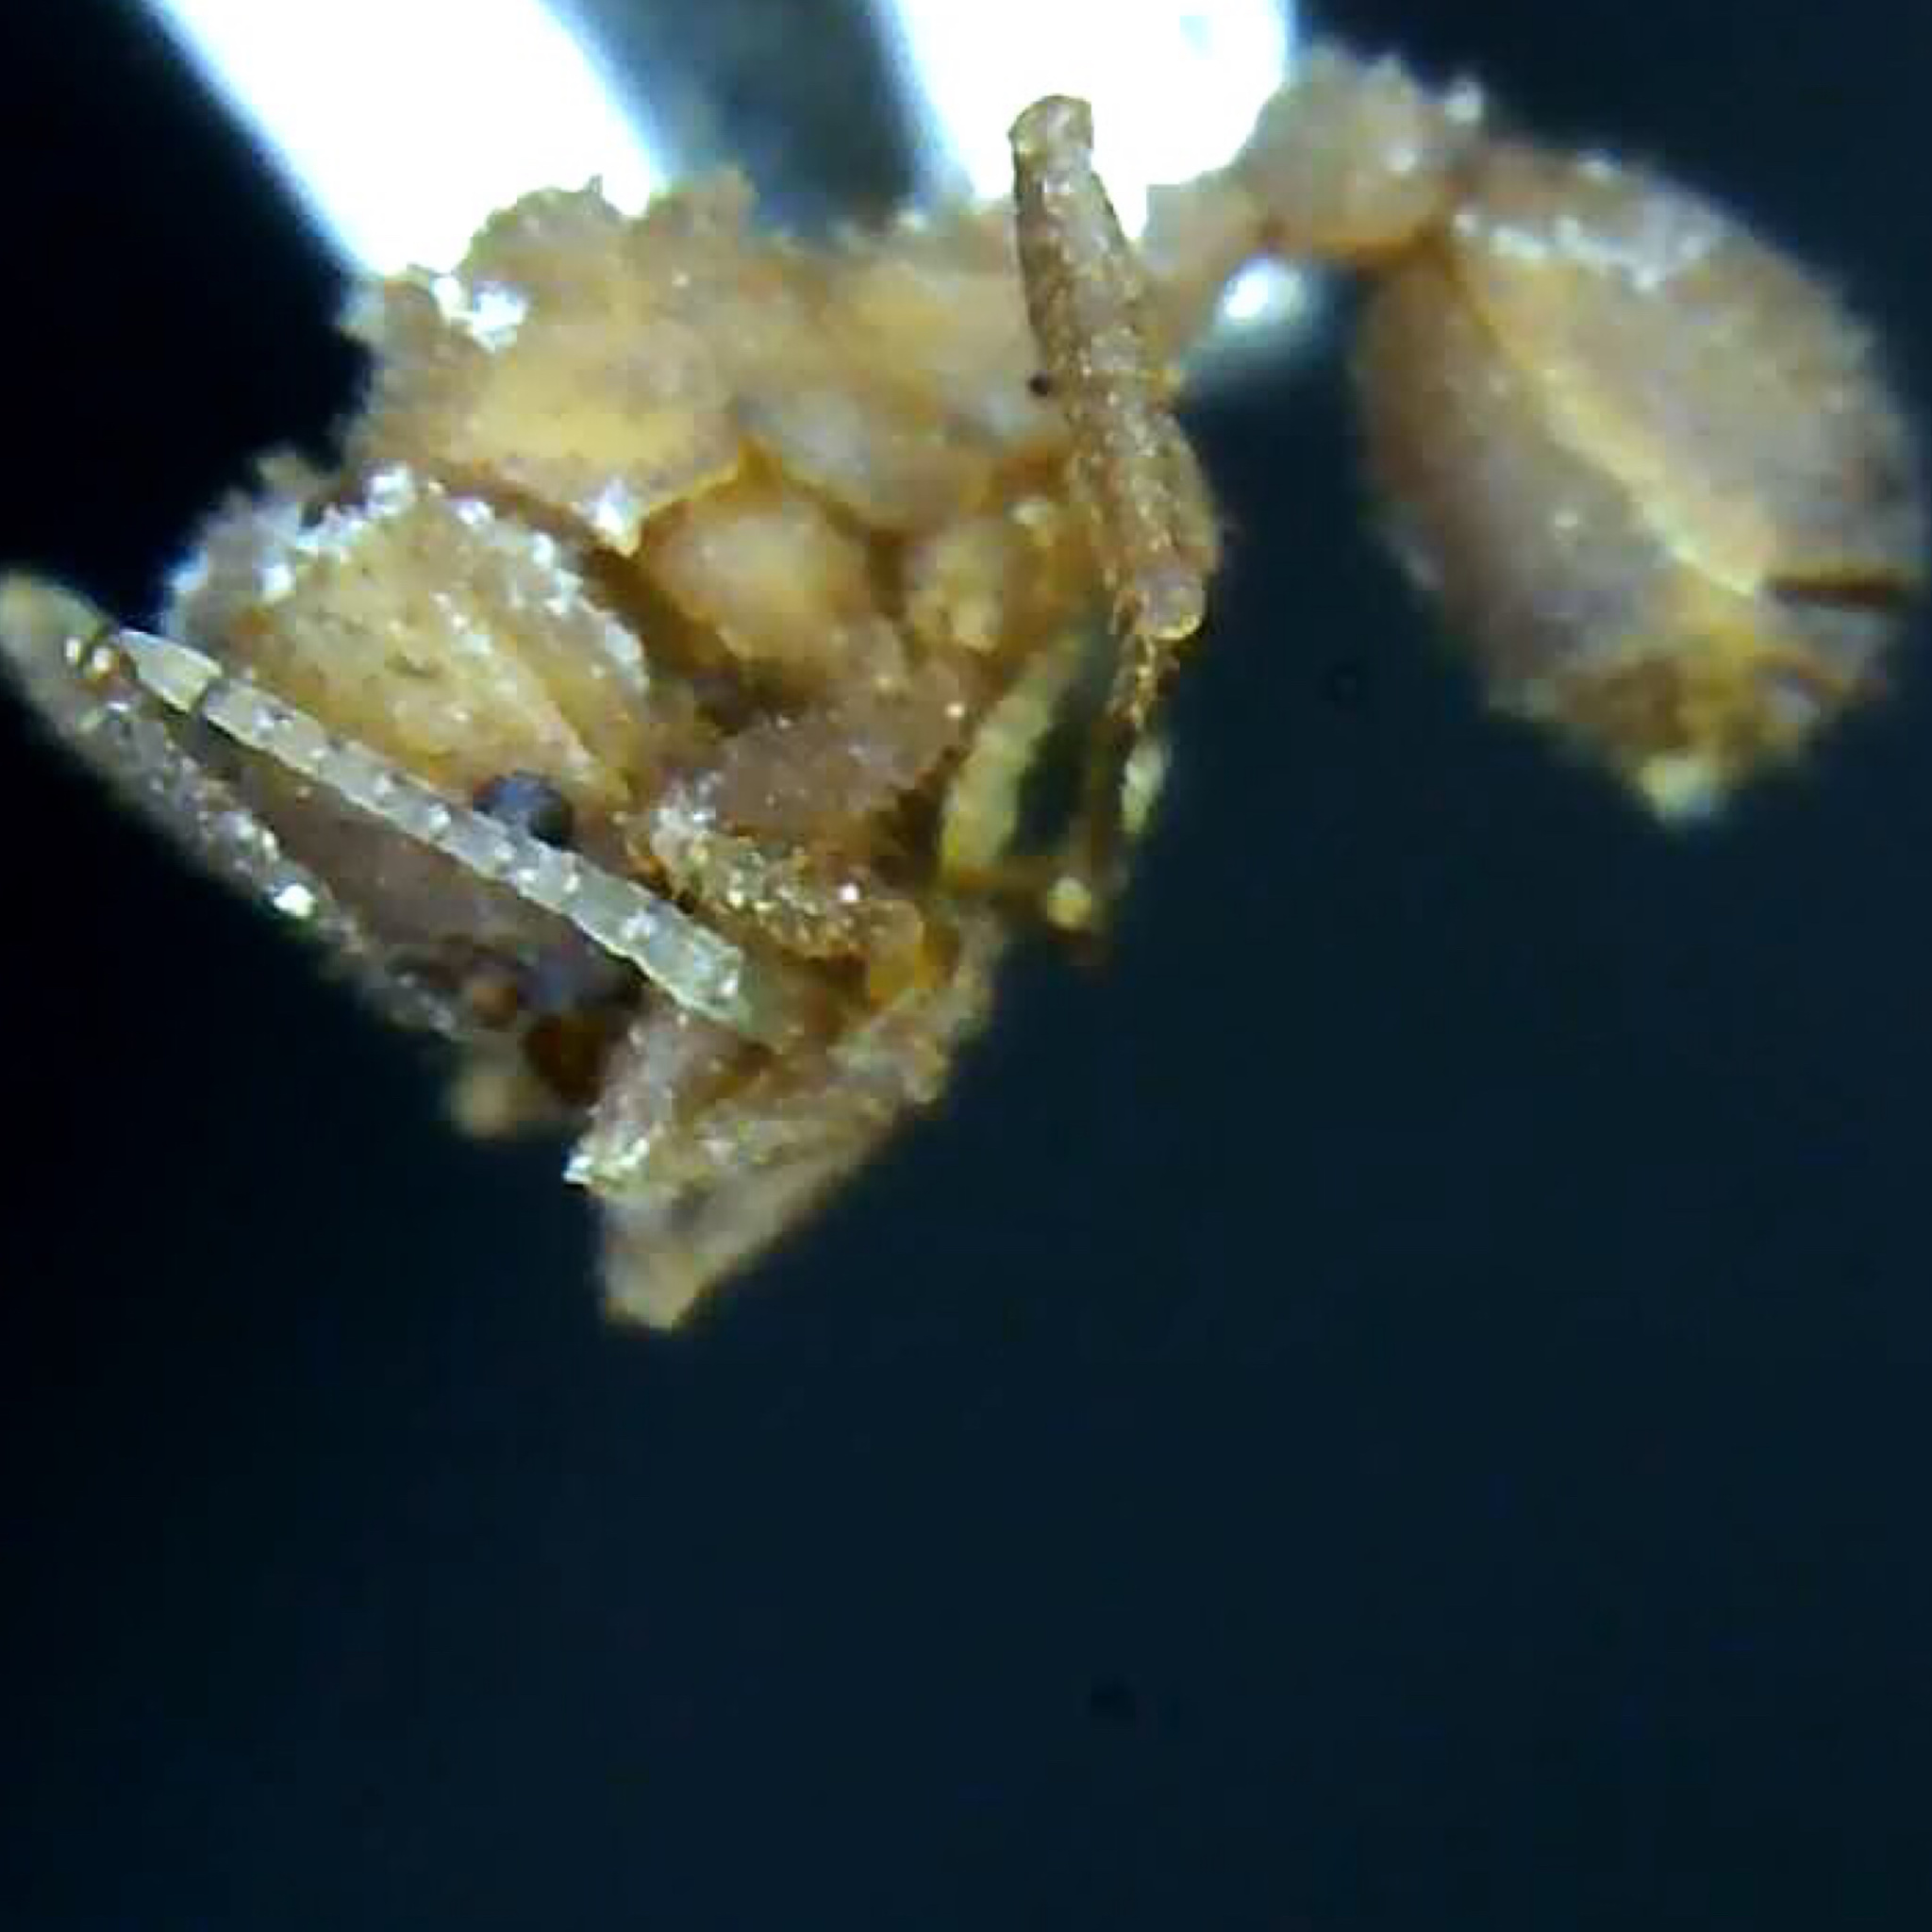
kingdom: Animalia
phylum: Arthropoda
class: Insecta
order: Hymenoptera
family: Formicidae
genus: Trachymyrmex
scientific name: Trachymyrmex septentrionalis
